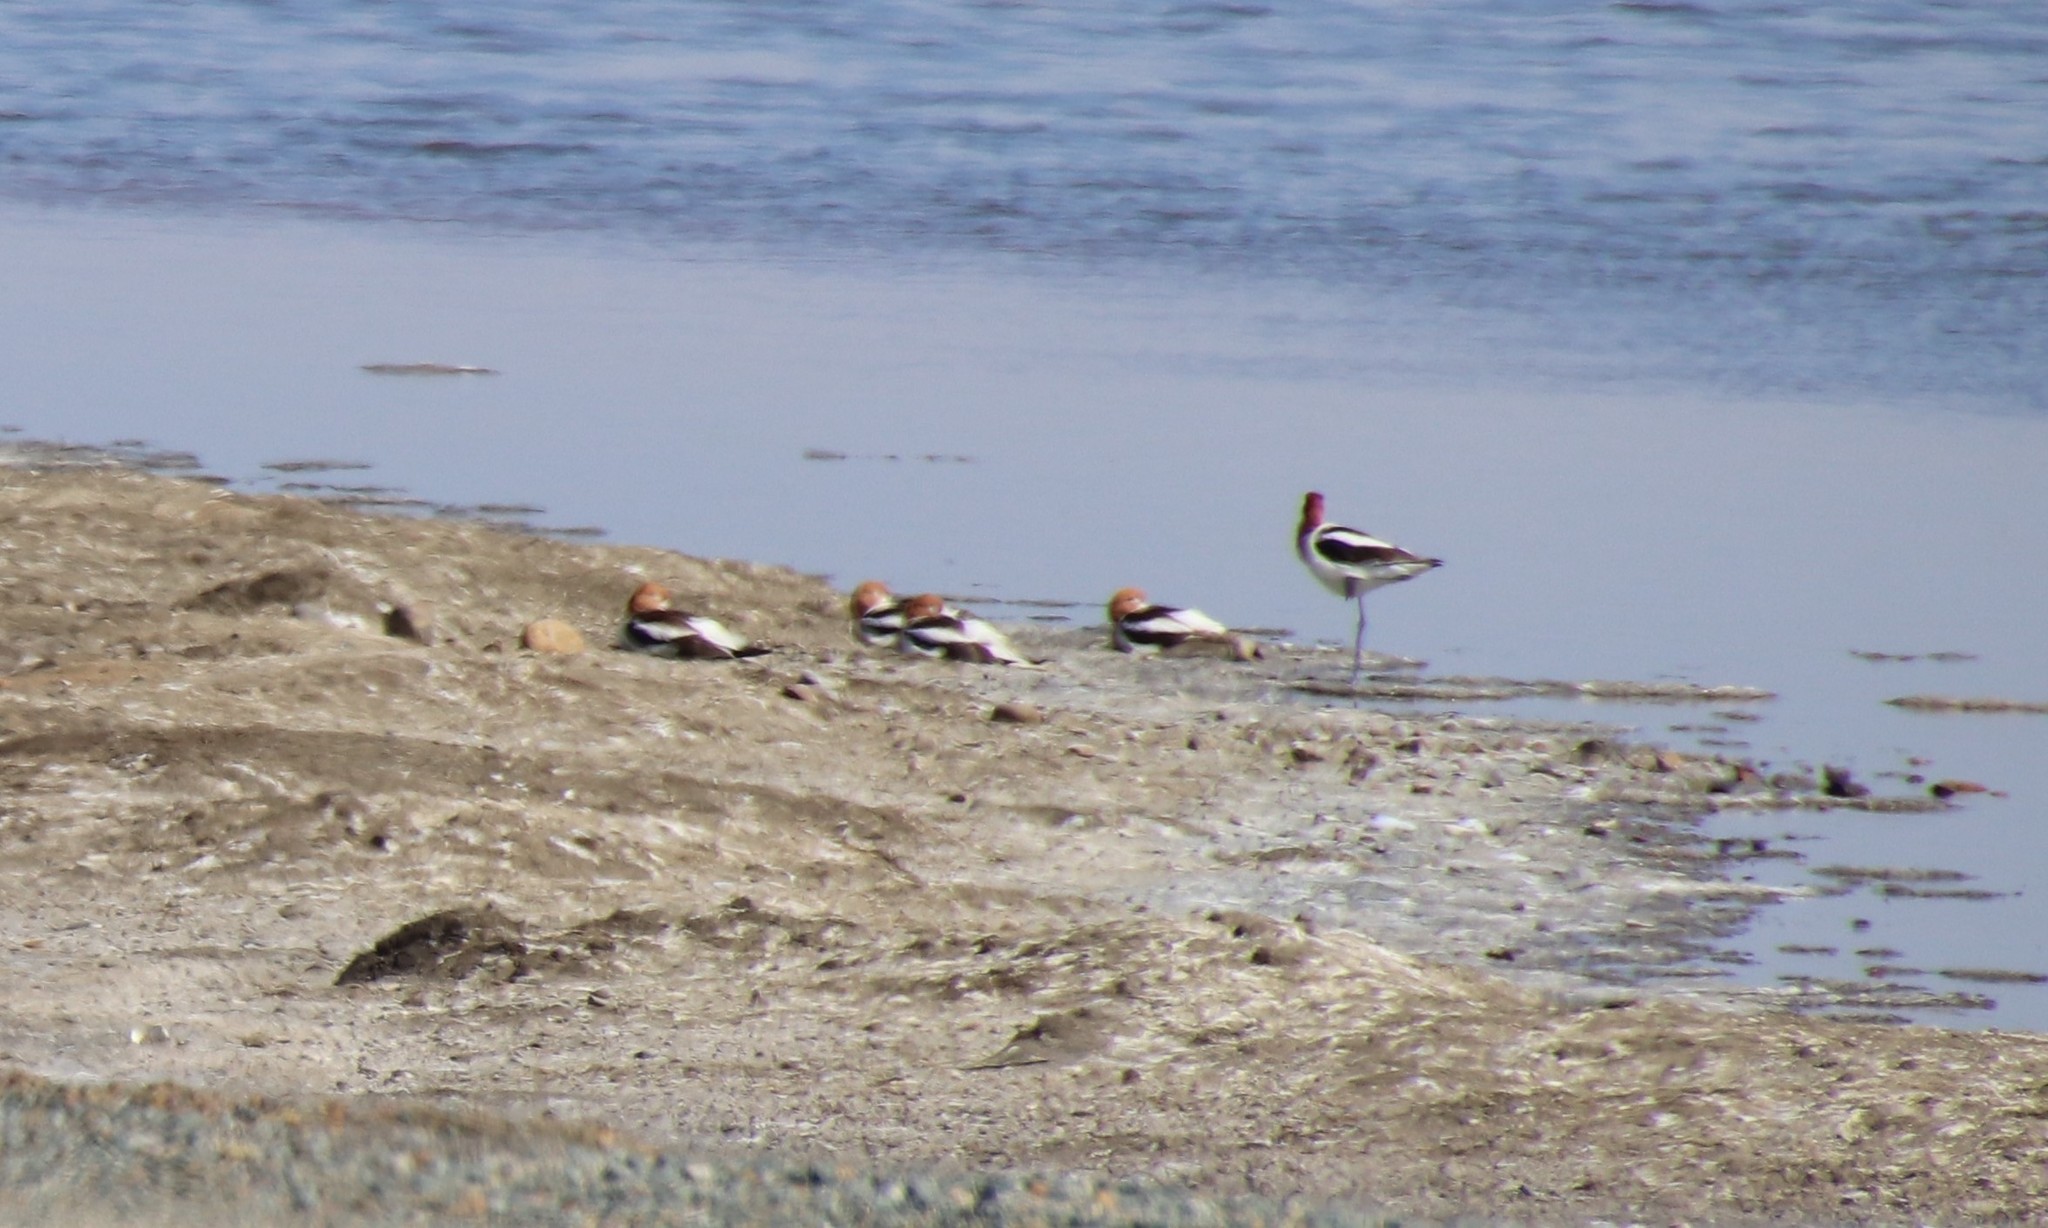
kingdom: Animalia
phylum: Chordata
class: Aves
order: Charadriiformes
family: Recurvirostridae
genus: Recurvirostra
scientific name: Recurvirostra americana
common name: American avocet
